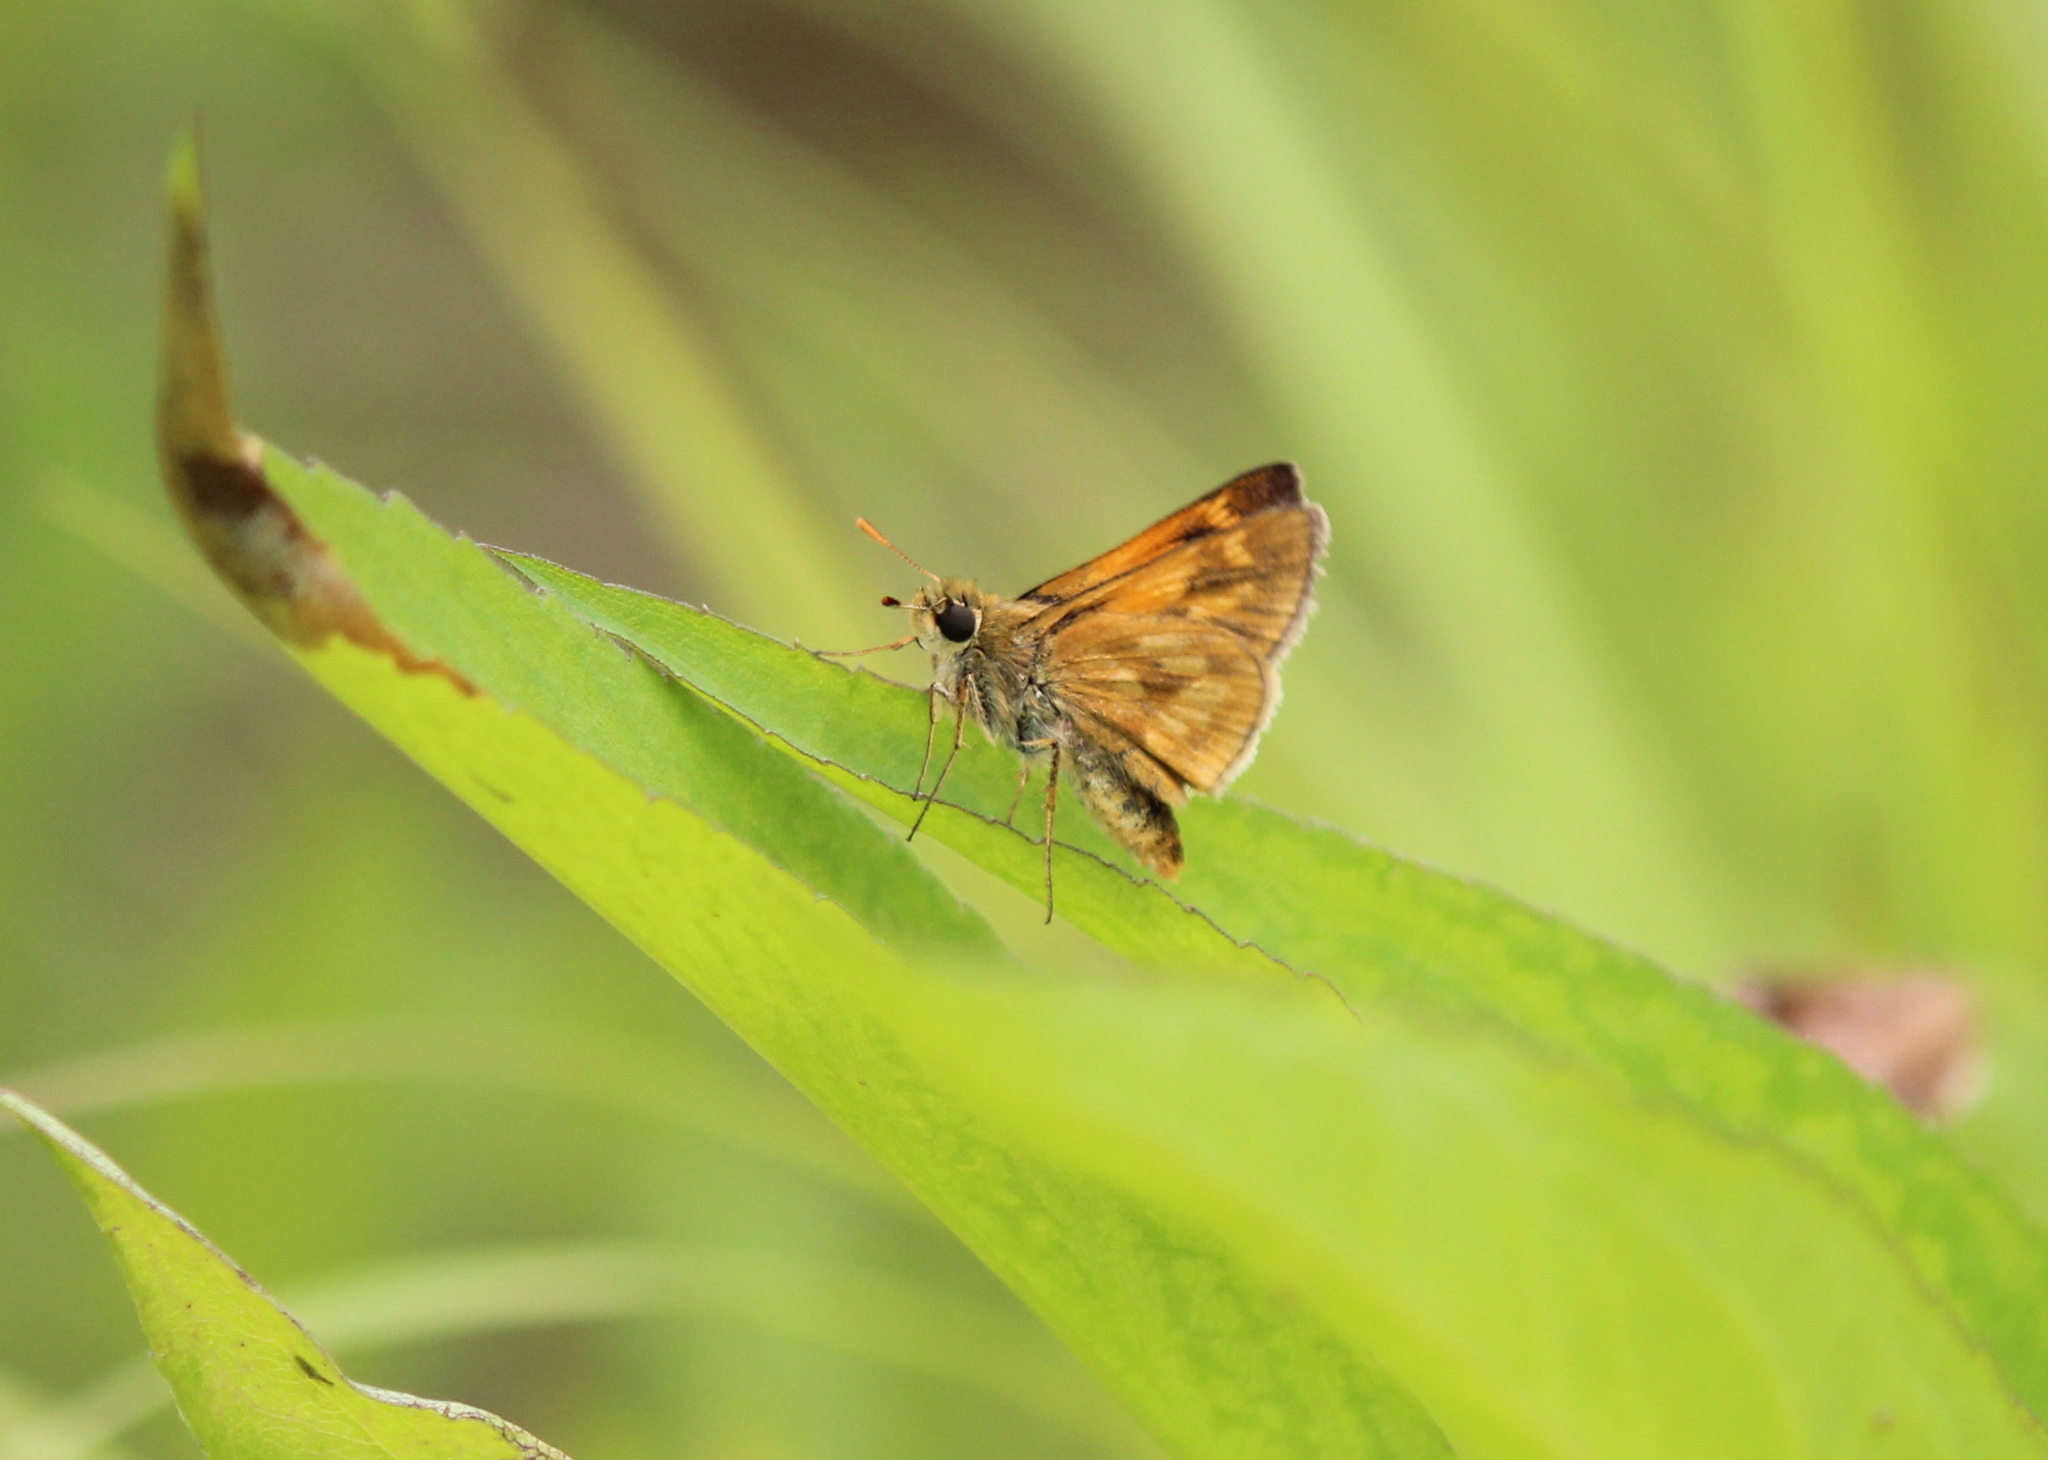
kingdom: Animalia
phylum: Arthropoda
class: Insecta
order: Lepidoptera
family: Hesperiidae
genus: Polites
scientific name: Polites mystic
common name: Long dash
